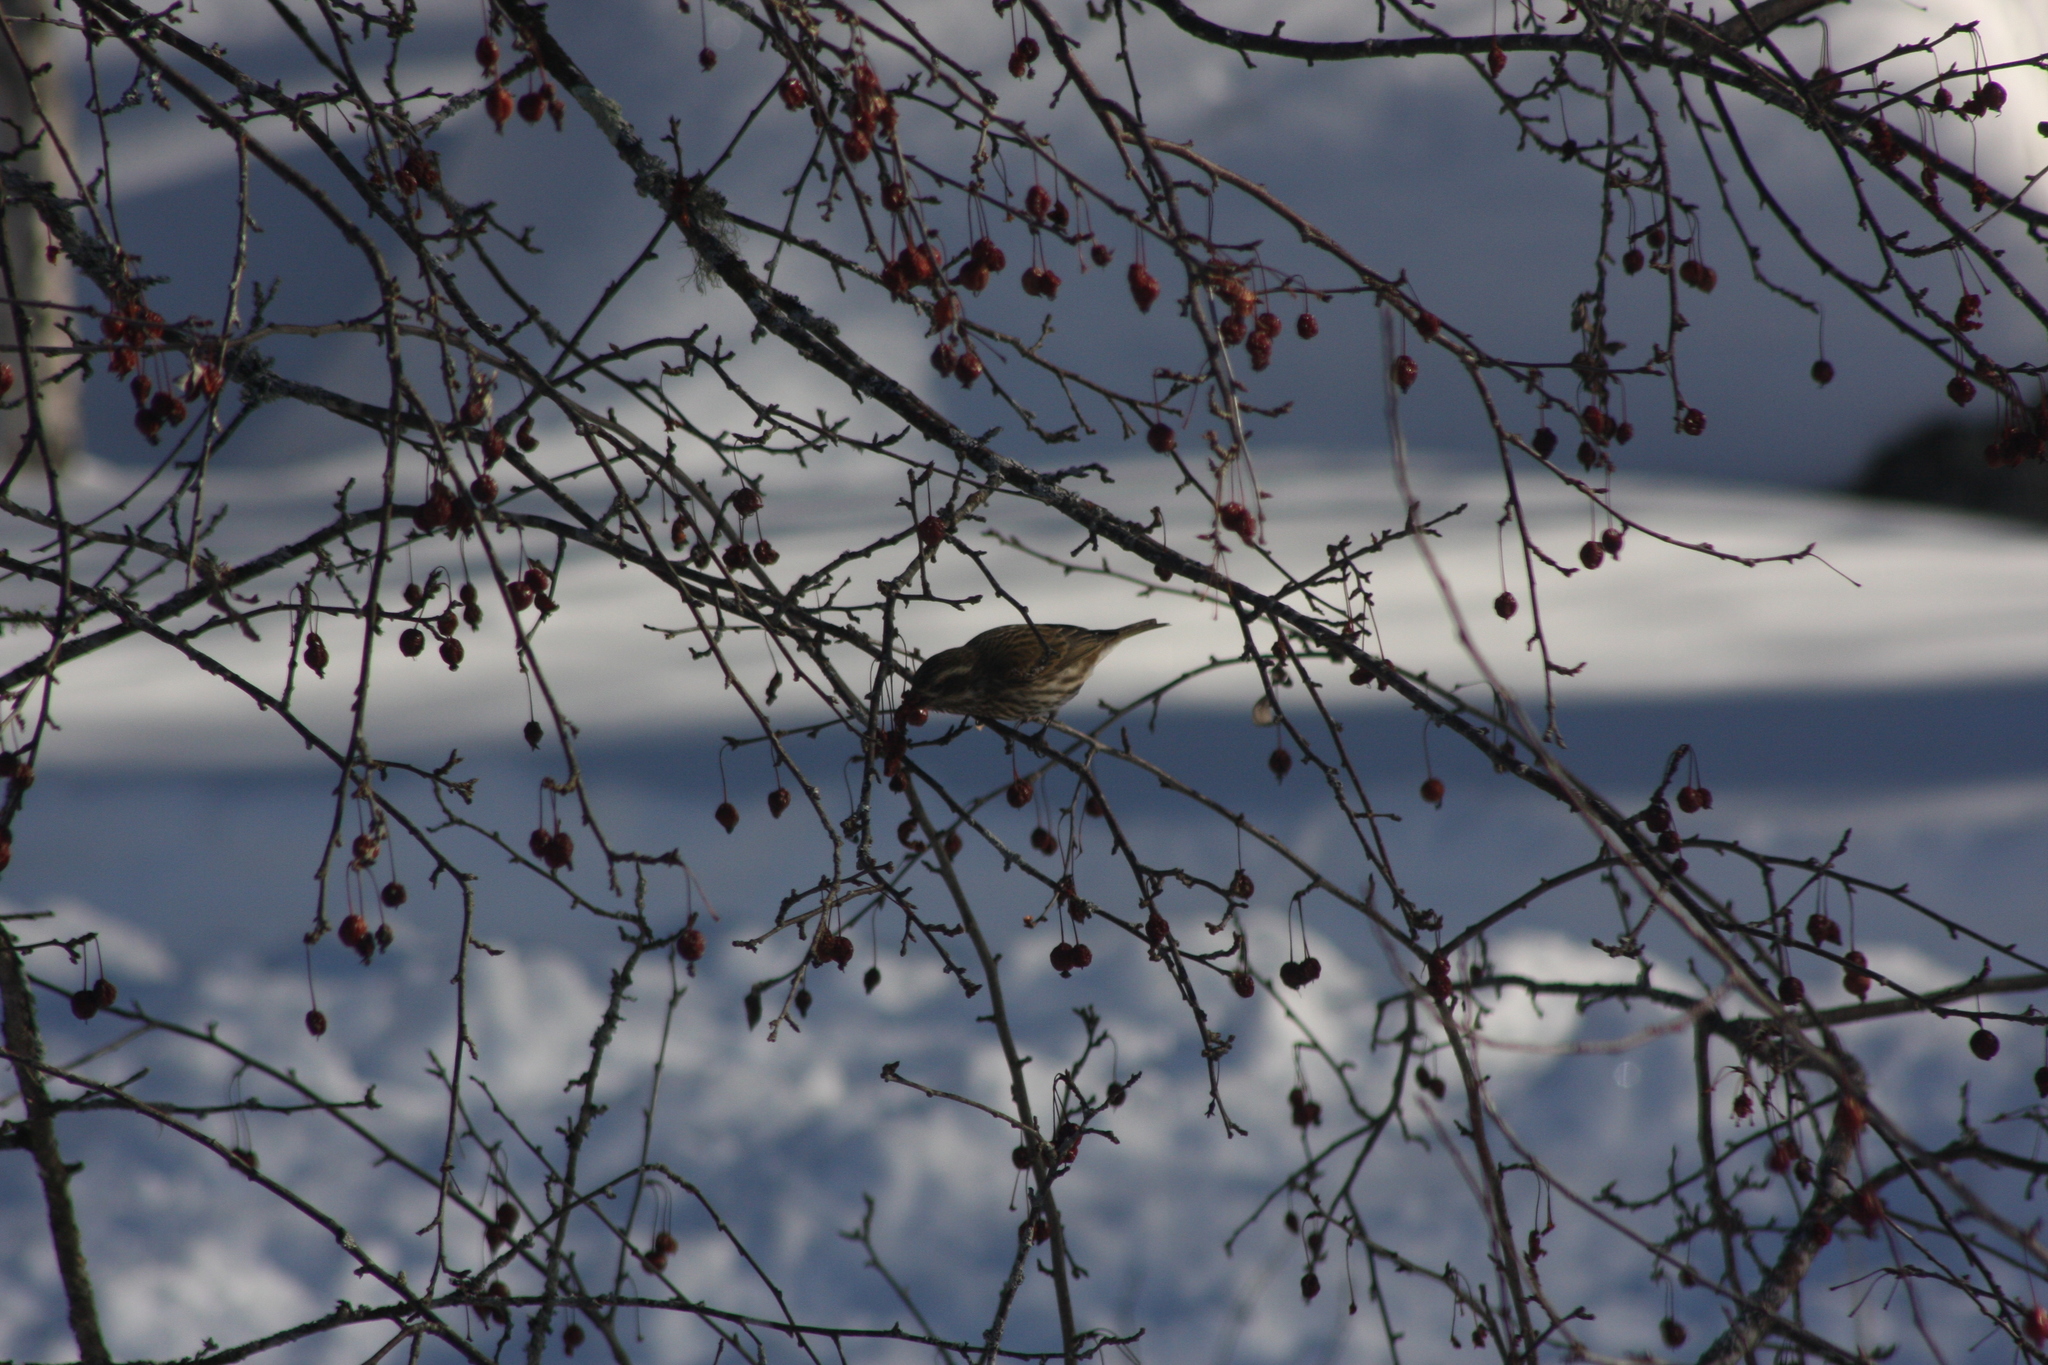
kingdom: Animalia
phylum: Chordata
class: Aves
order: Passeriformes
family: Fringillidae
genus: Haemorhous
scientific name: Haemorhous purpureus
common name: Purple finch
